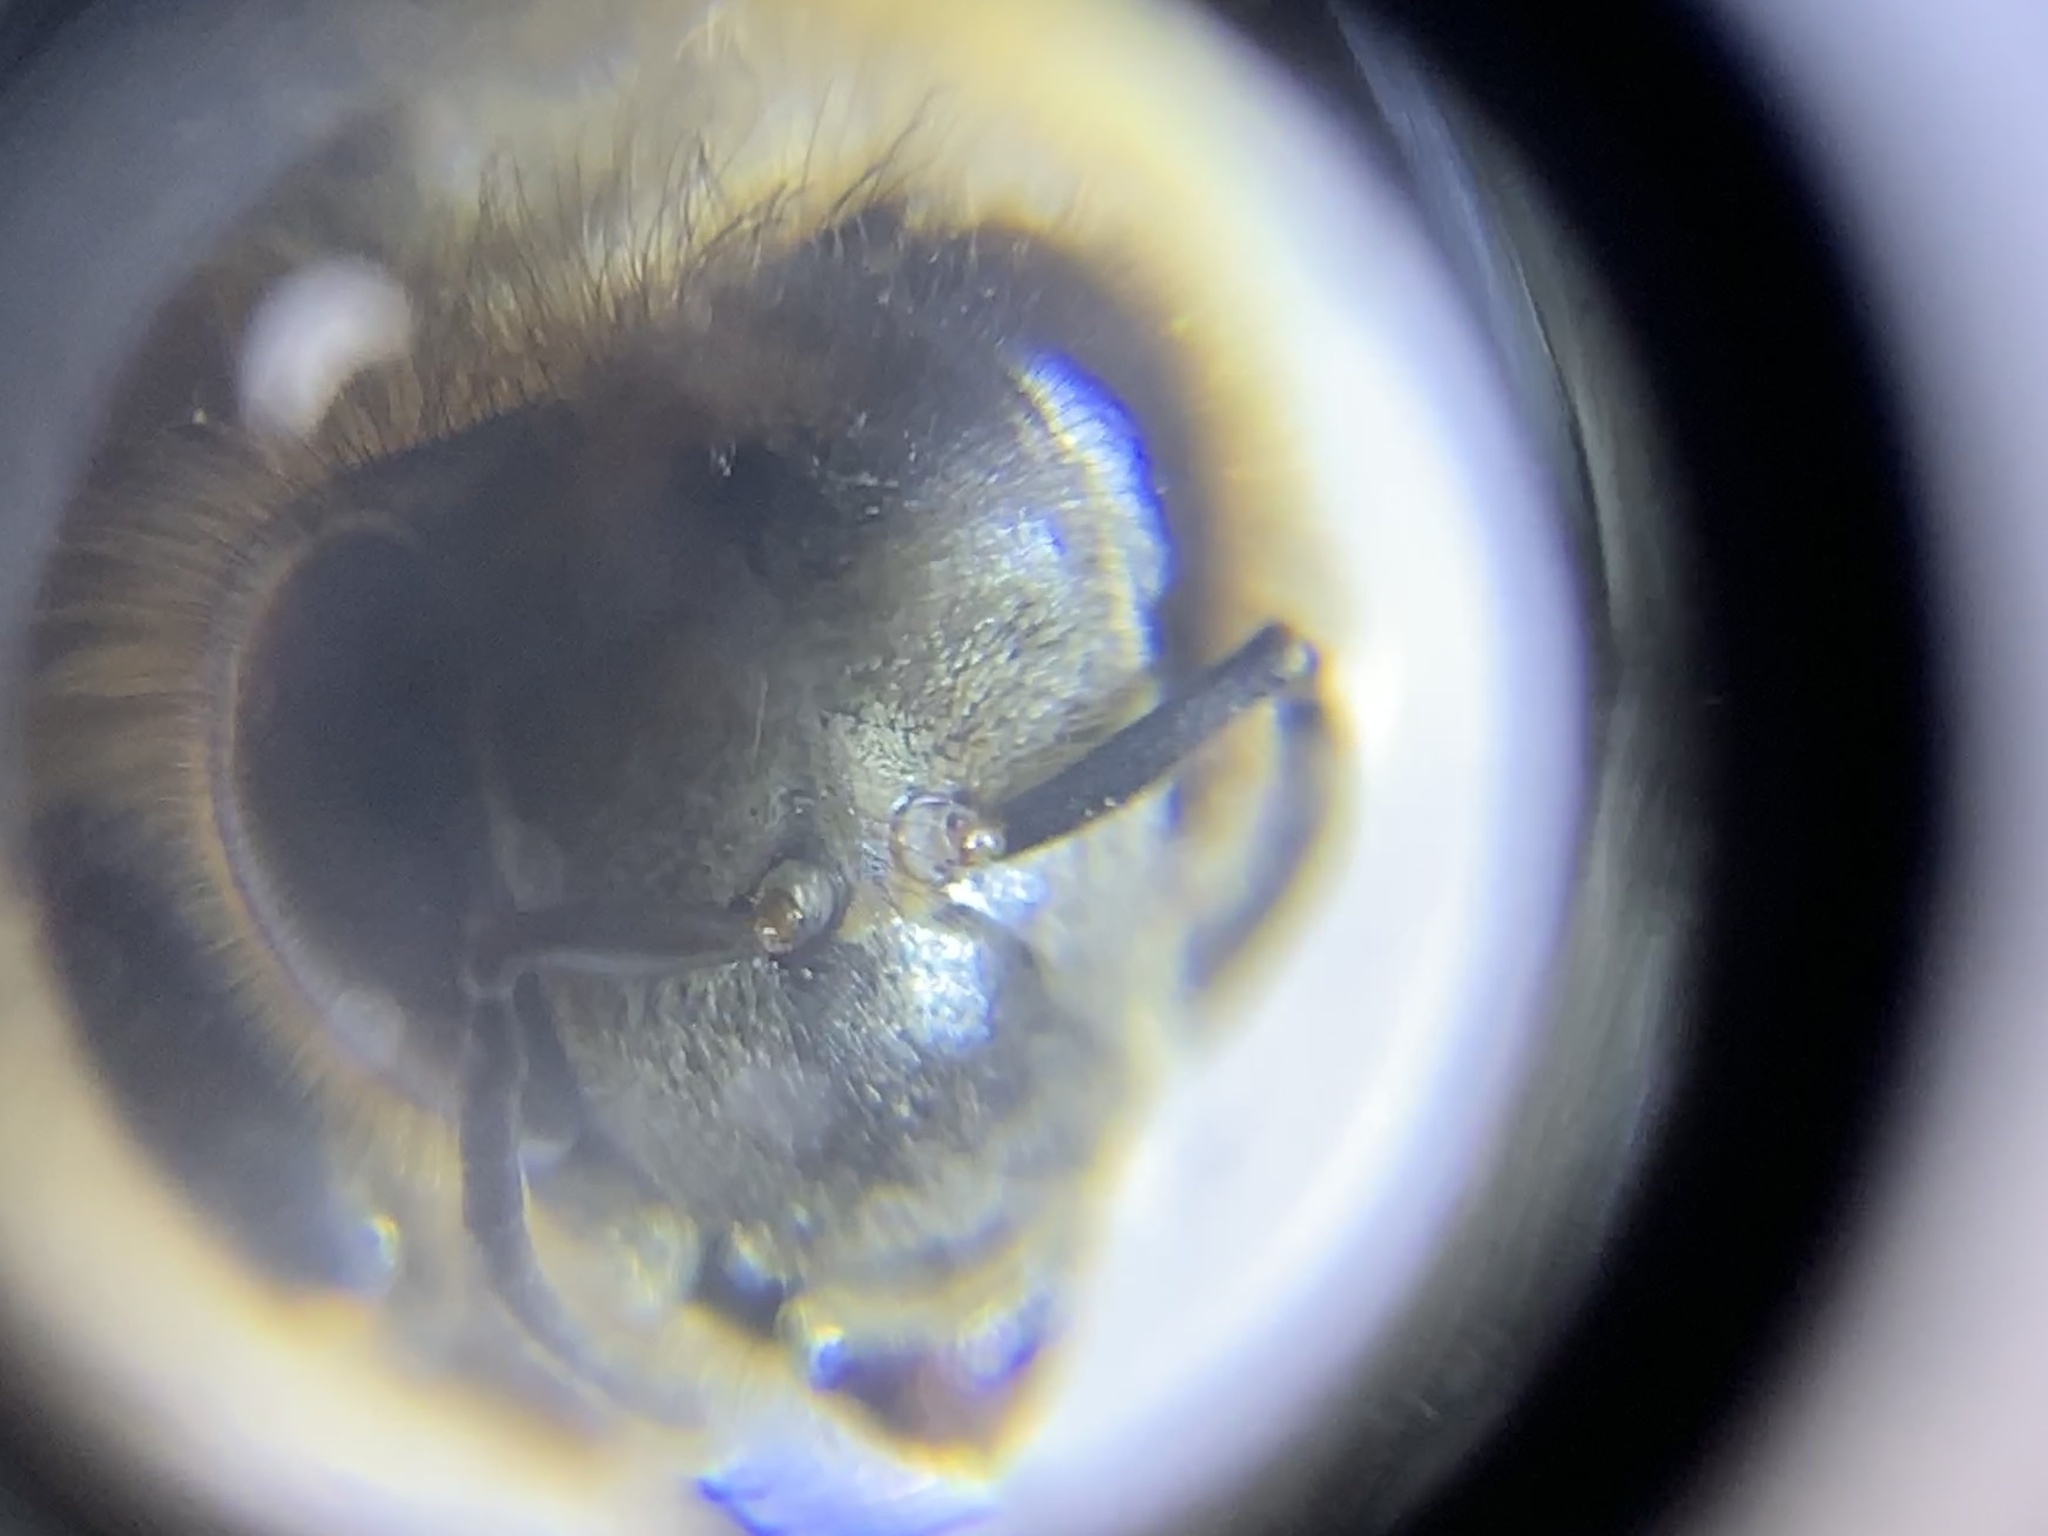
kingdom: Animalia
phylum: Arthropoda
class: Insecta
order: Hymenoptera
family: Apidae
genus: Apis
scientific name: Apis mellifera
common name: Honey bee
